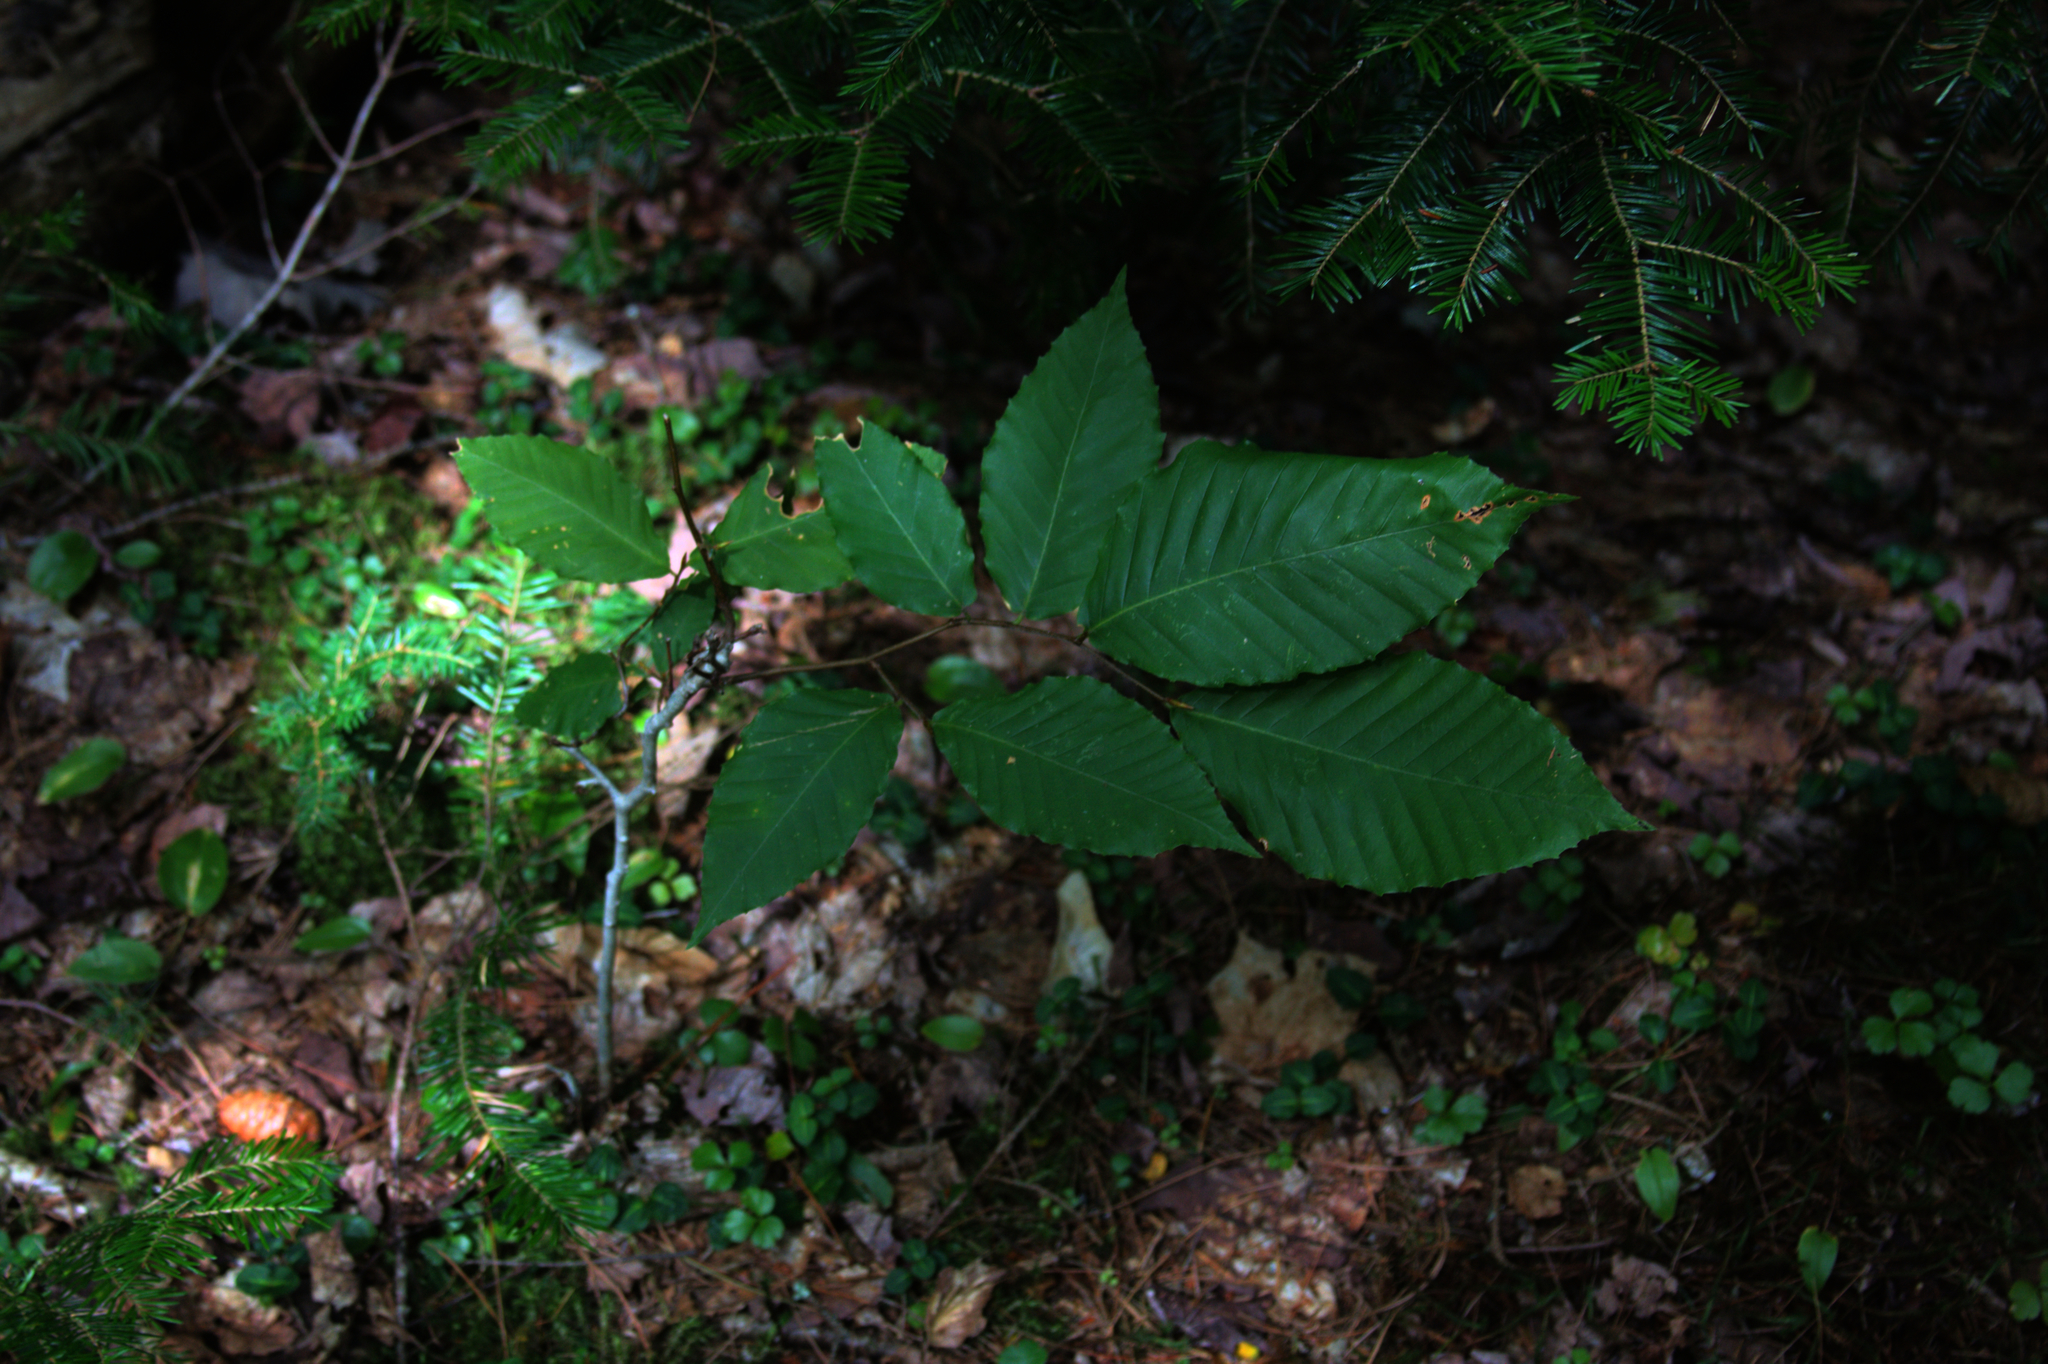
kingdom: Plantae
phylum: Tracheophyta
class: Magnoliopsida
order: Fagales
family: Fagaceae
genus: Fagus
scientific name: Fagus grandifolia
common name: American beech
